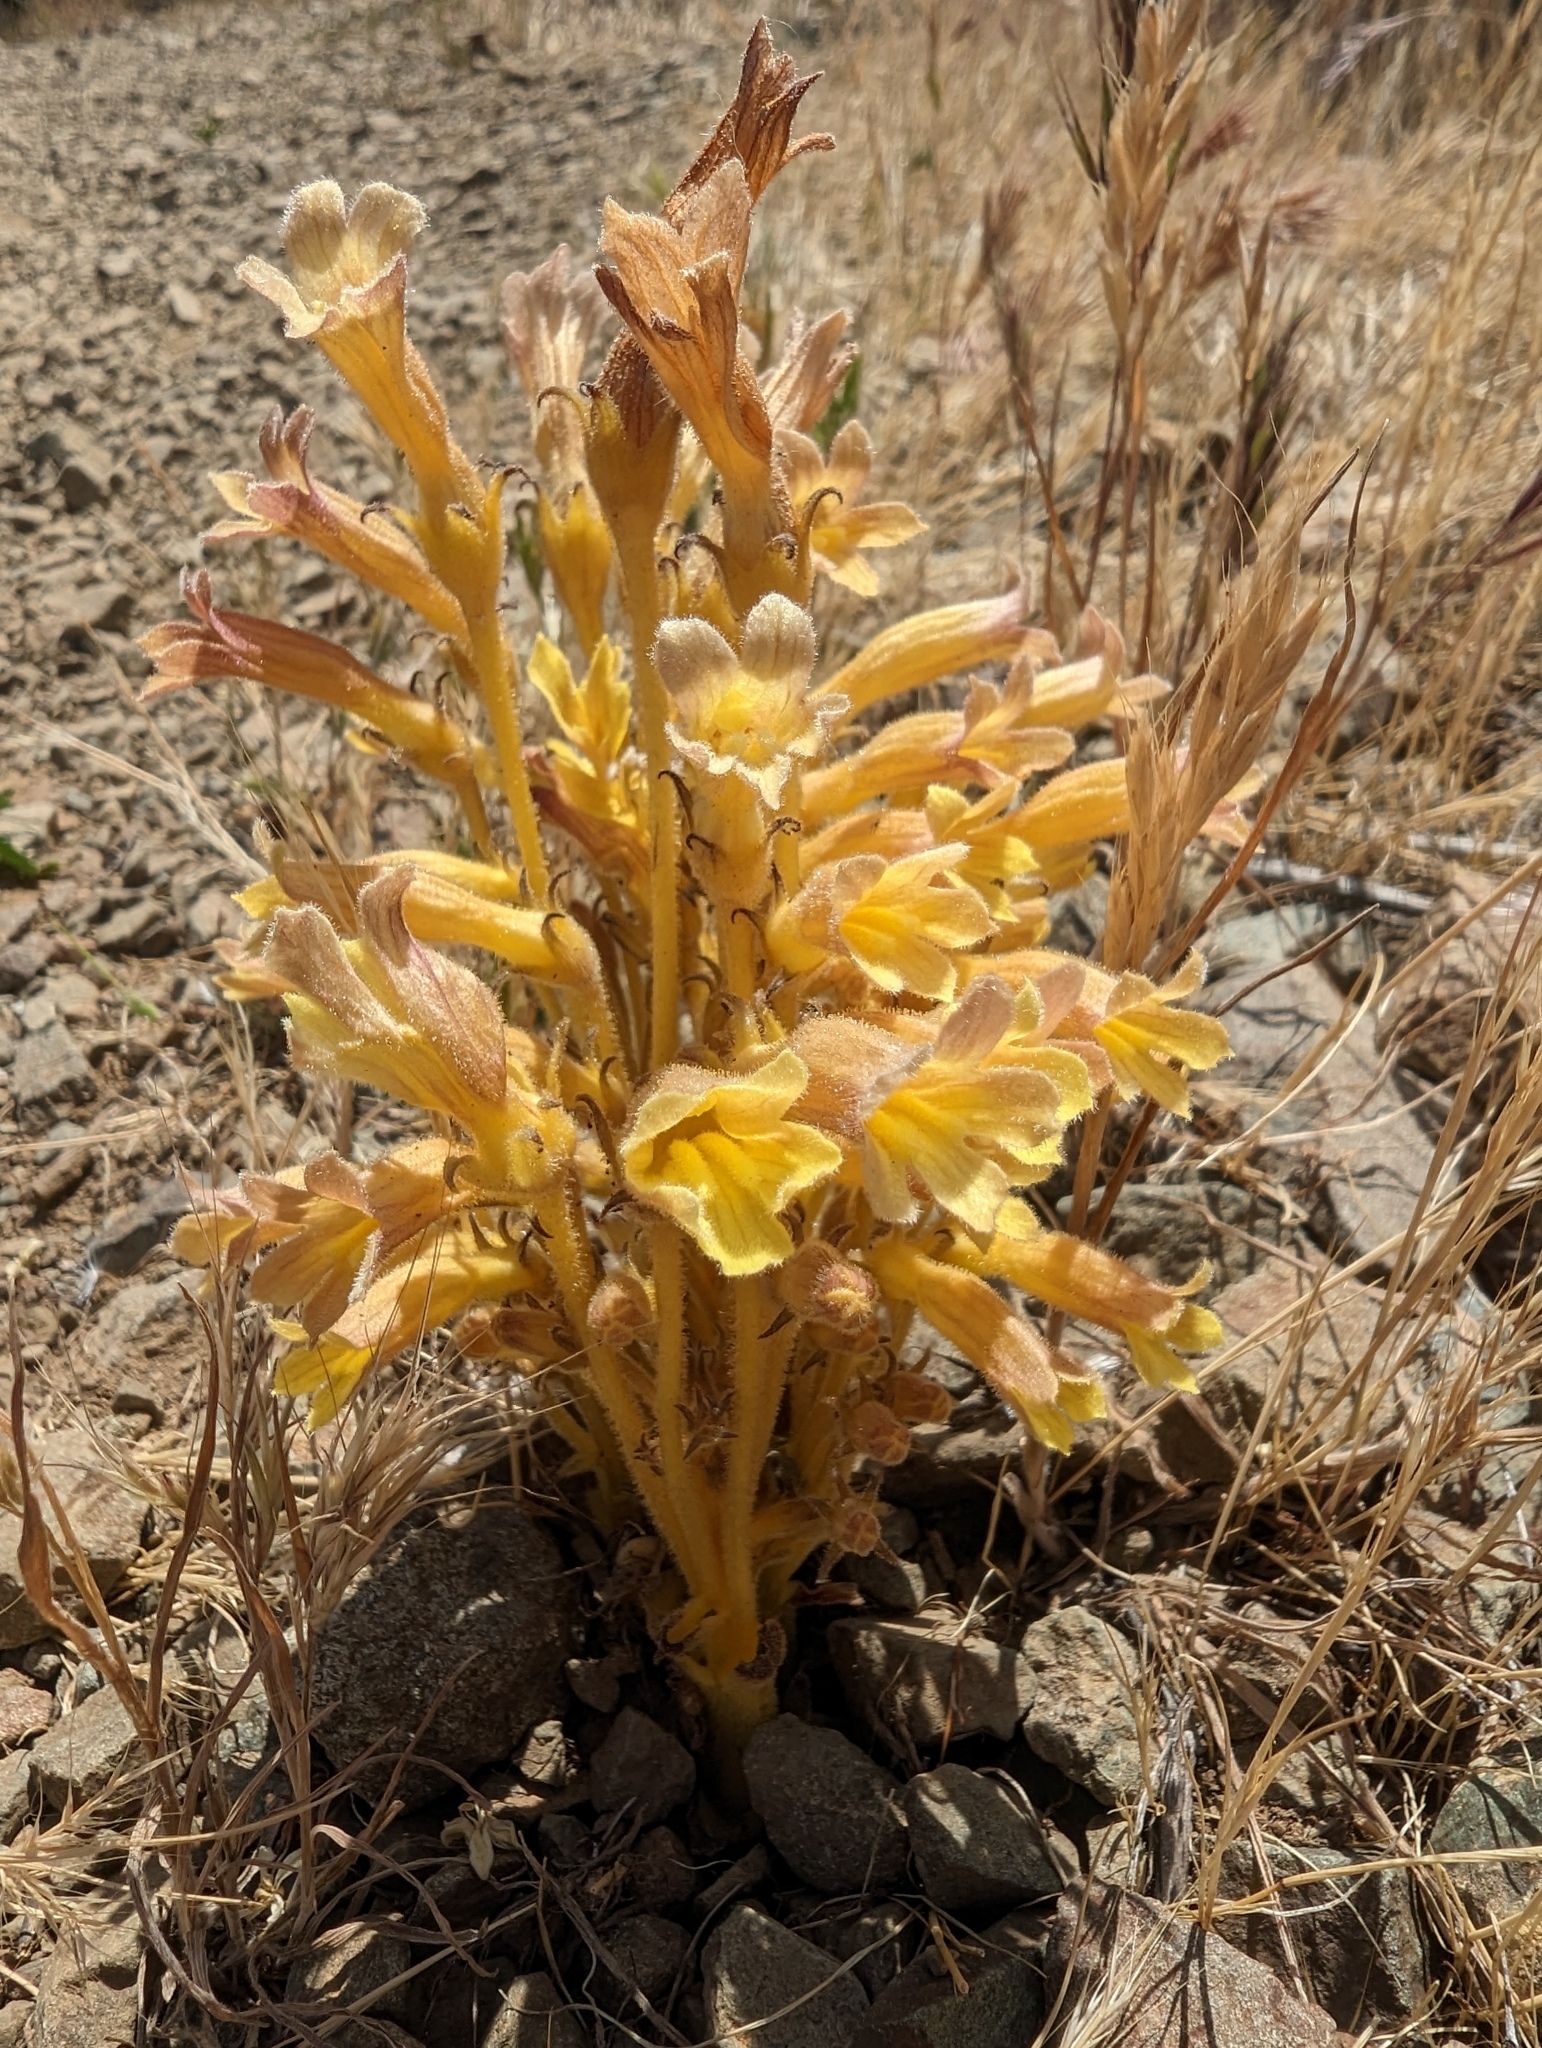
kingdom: Plantae
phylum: Tracheophyta
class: Magnoliopsida
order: Lamiales
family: Orobanchaceae
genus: Aphyllon
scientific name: Aphyllon franciscanum
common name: San francisco broomrape
